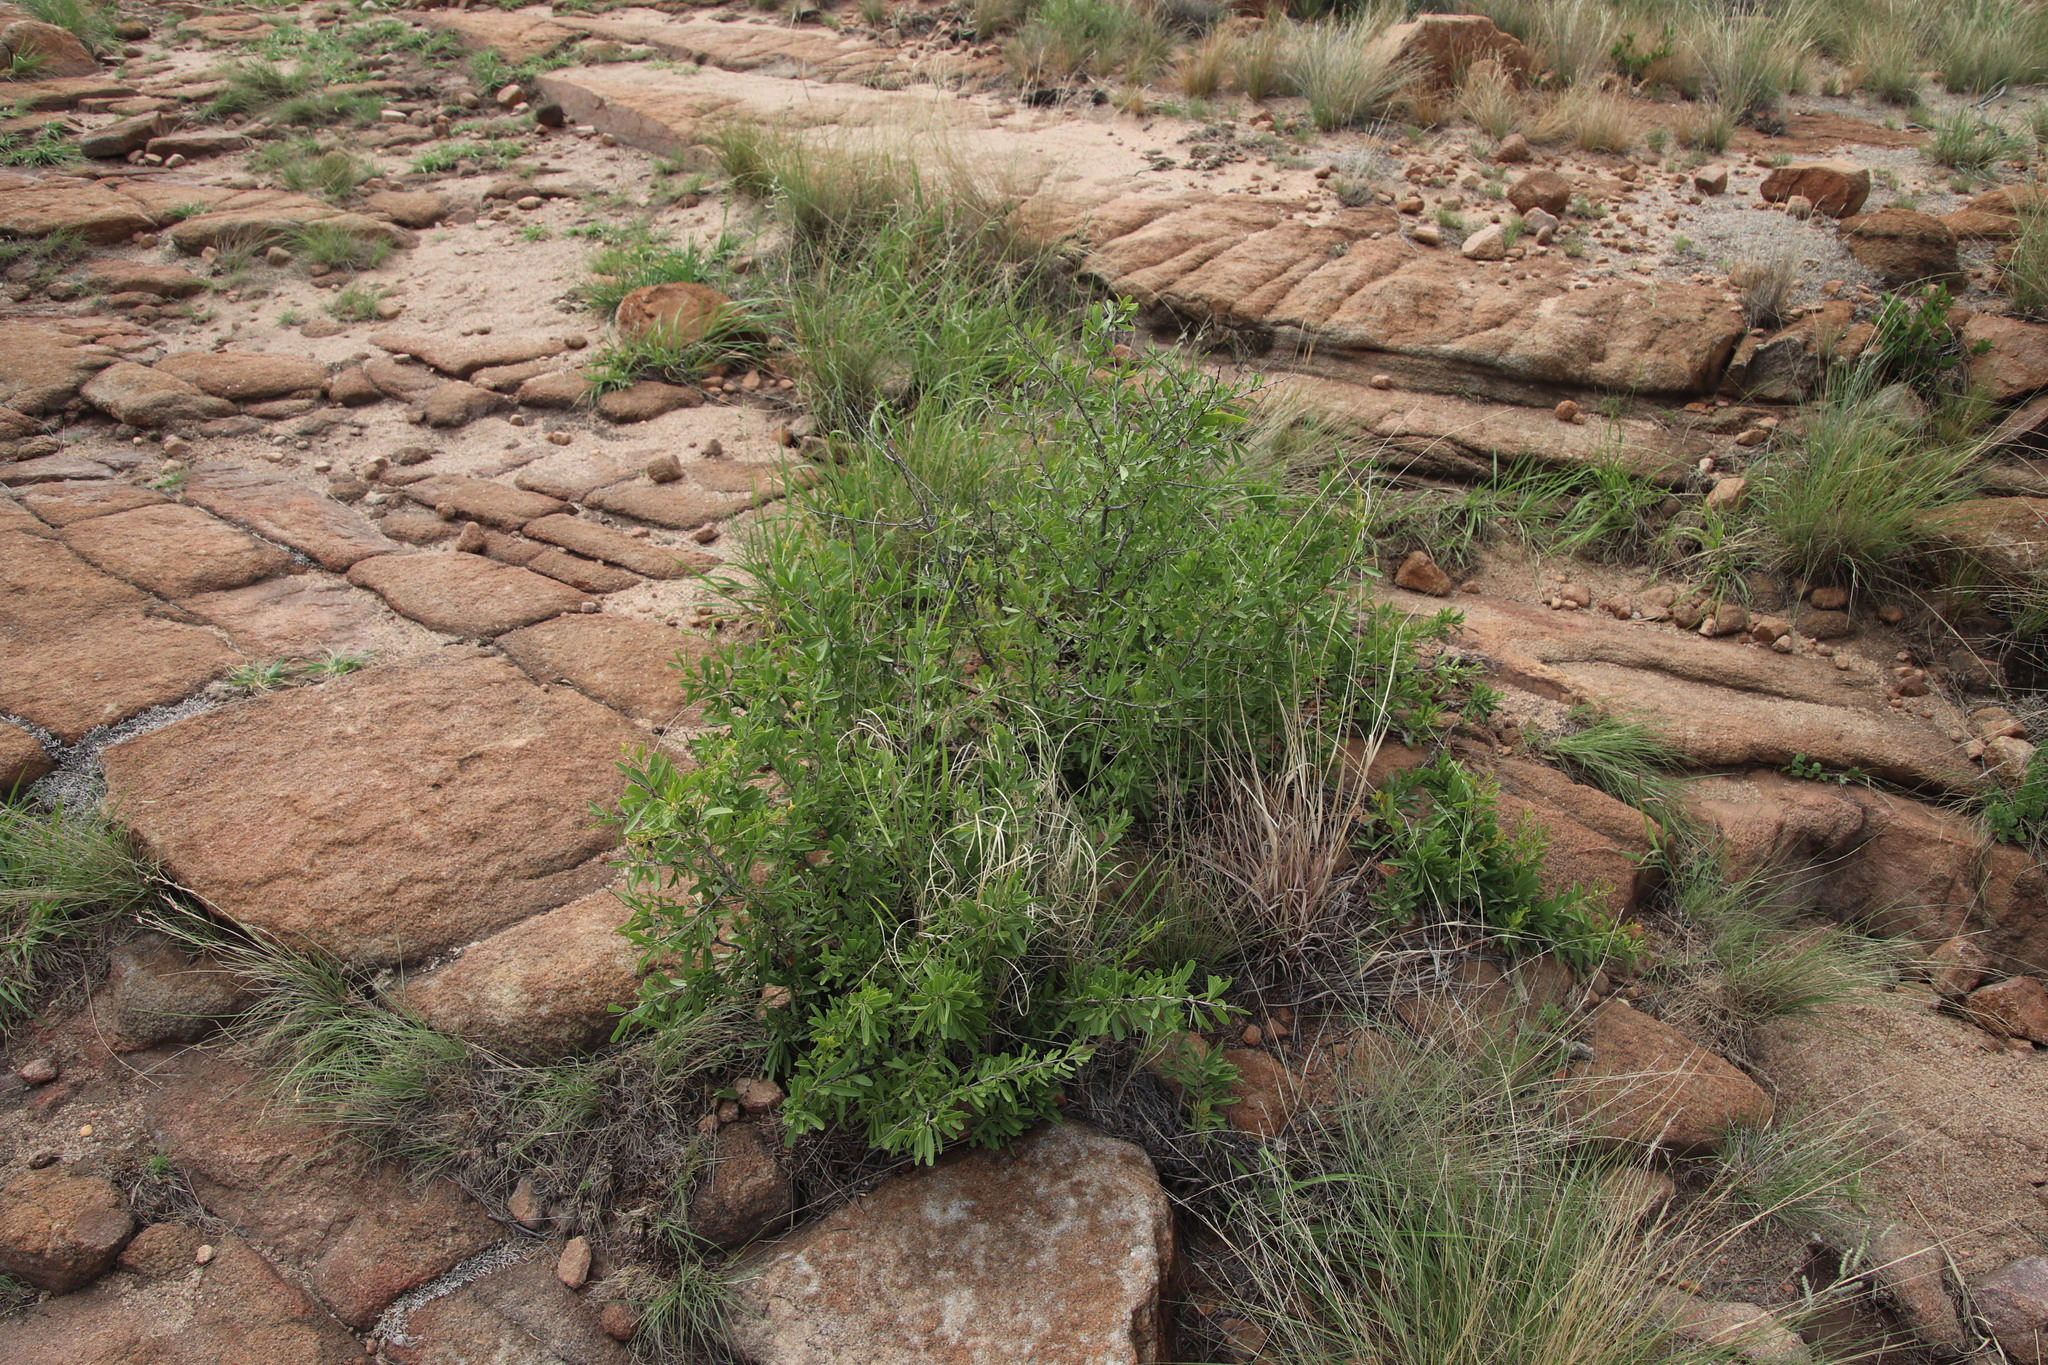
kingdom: Plantae
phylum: Tracheophyta
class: Magnoliopsida
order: Celastrales
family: Celastraceae
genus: Gymnosporia
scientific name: Gymnosporia tenuispina
